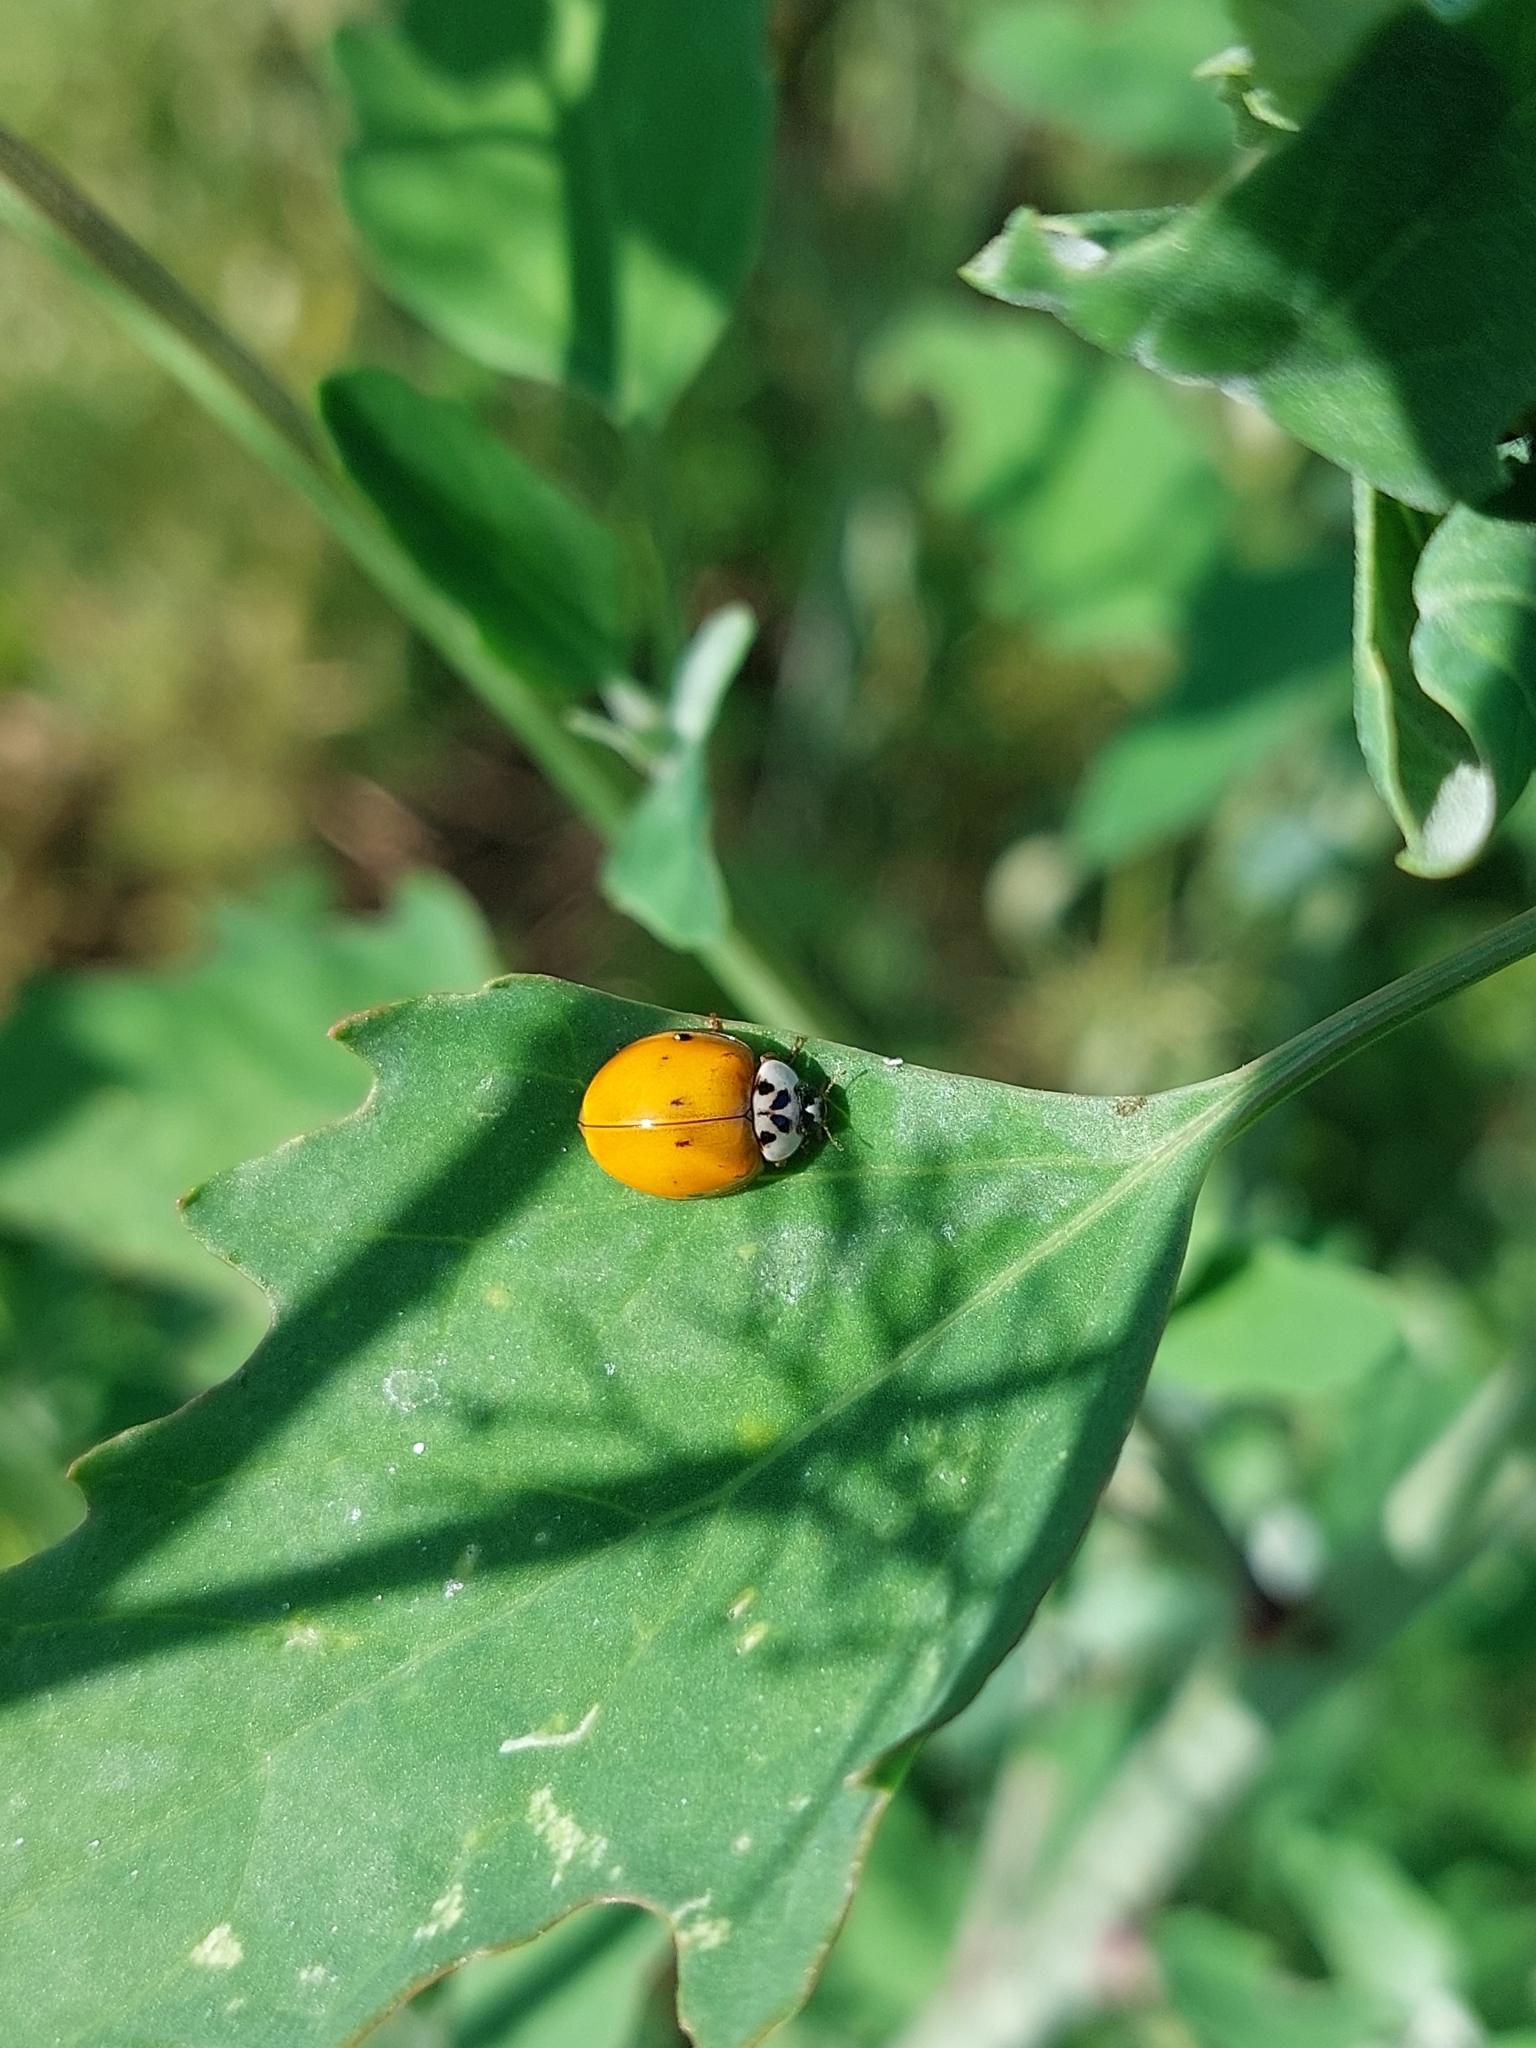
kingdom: Animalia
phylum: Arthropoda
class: Insecta
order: Coleoptera
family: Coccinellidae
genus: Harmonia
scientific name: Harmonia axyridis
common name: Harlequin ladybird
